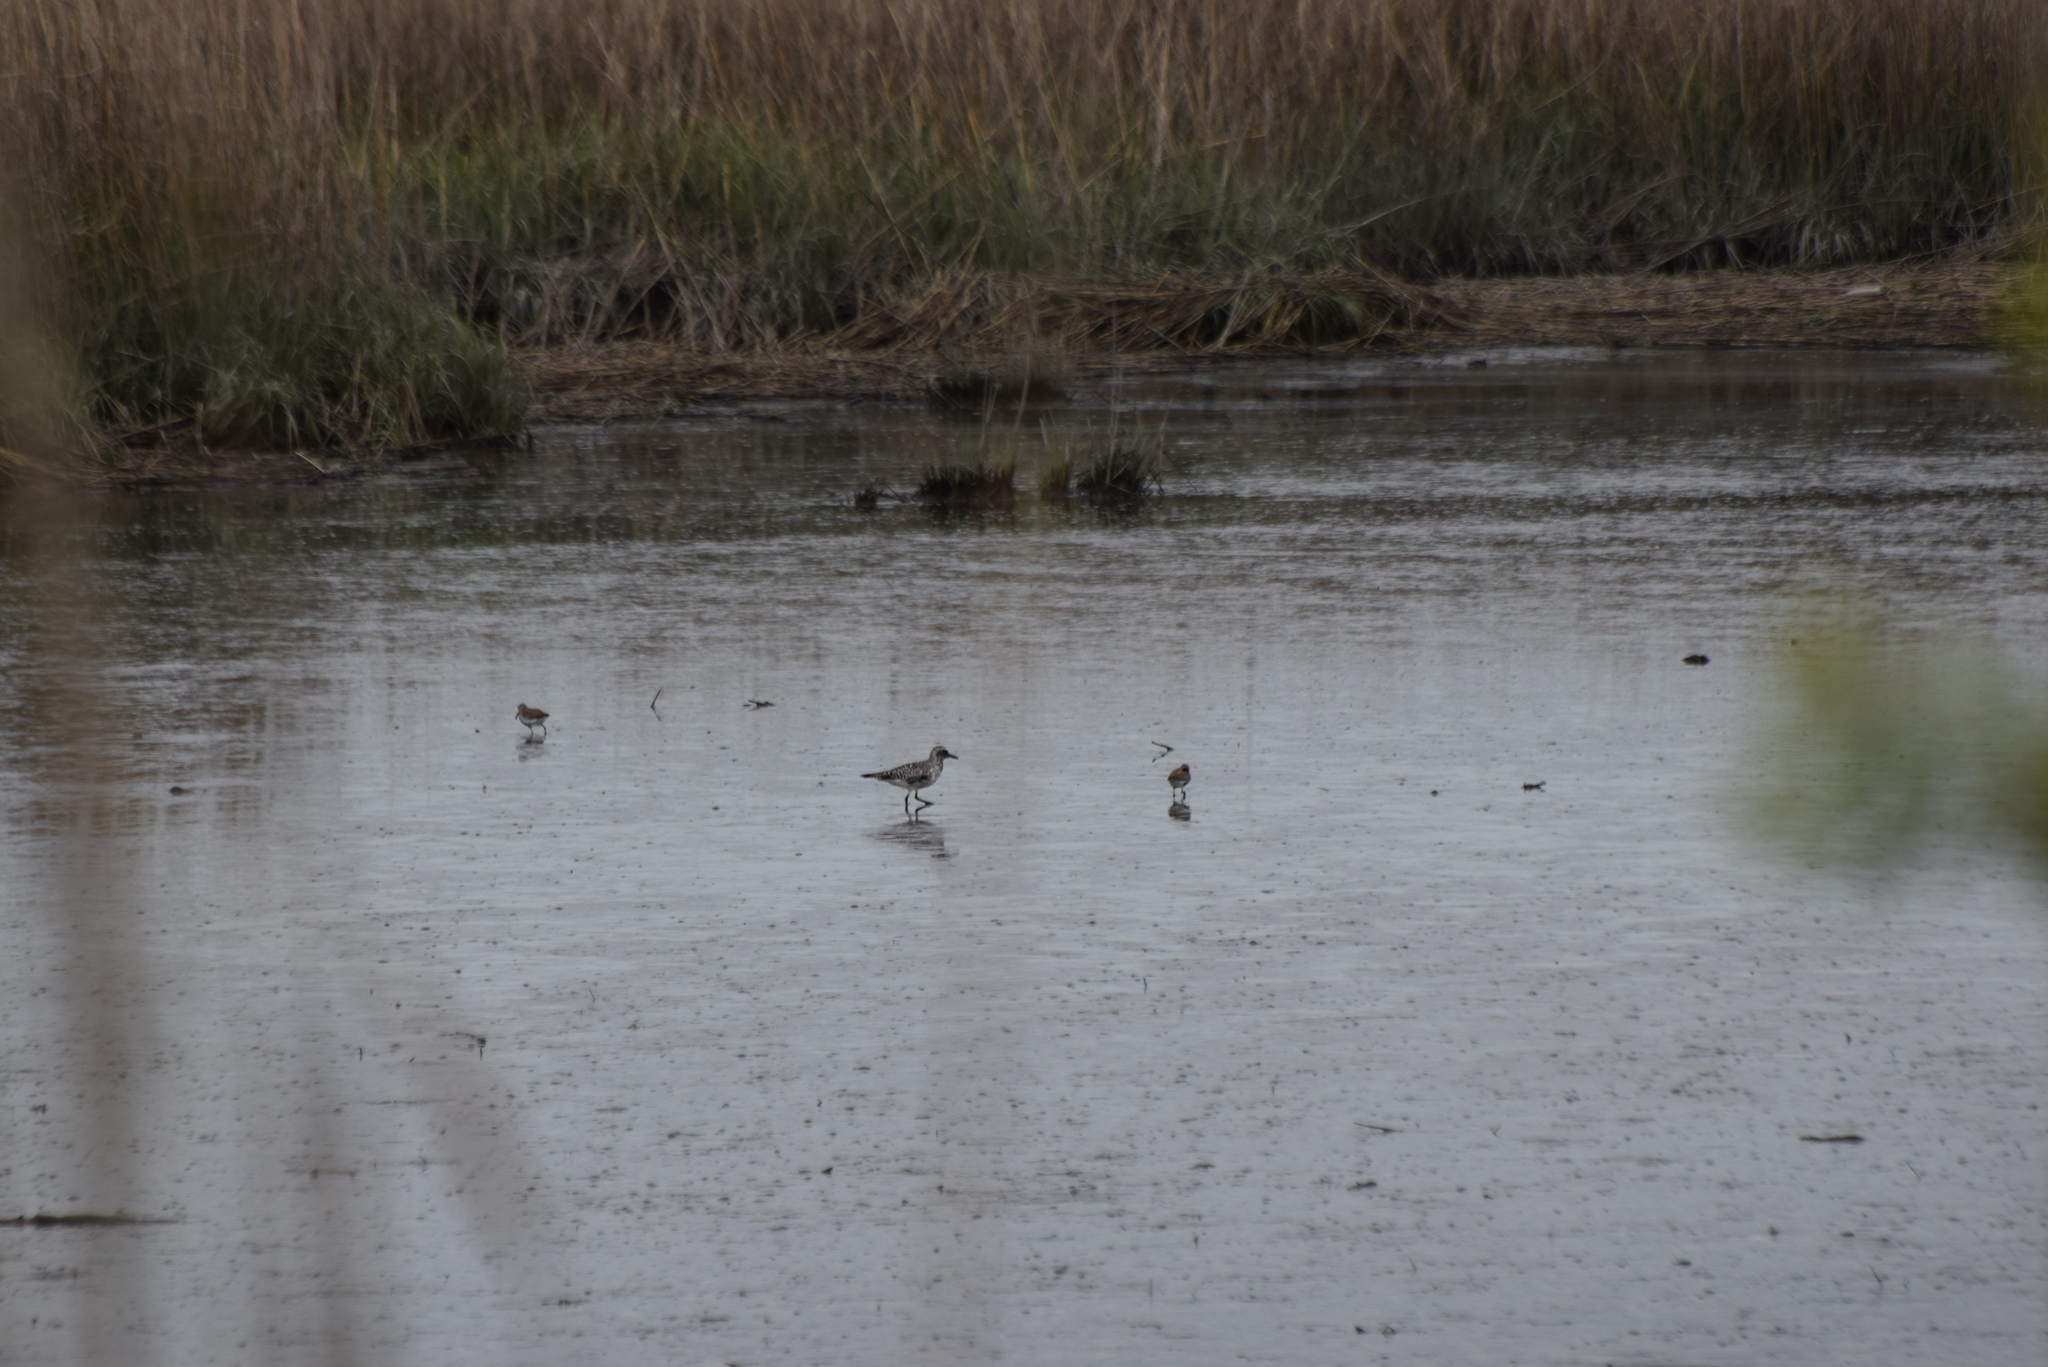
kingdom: Animalia
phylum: Chordata
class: Aves
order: Charadriiformes
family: Charadriidae
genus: Pluvialis
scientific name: Pluvialis squatarola
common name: Grey plover
